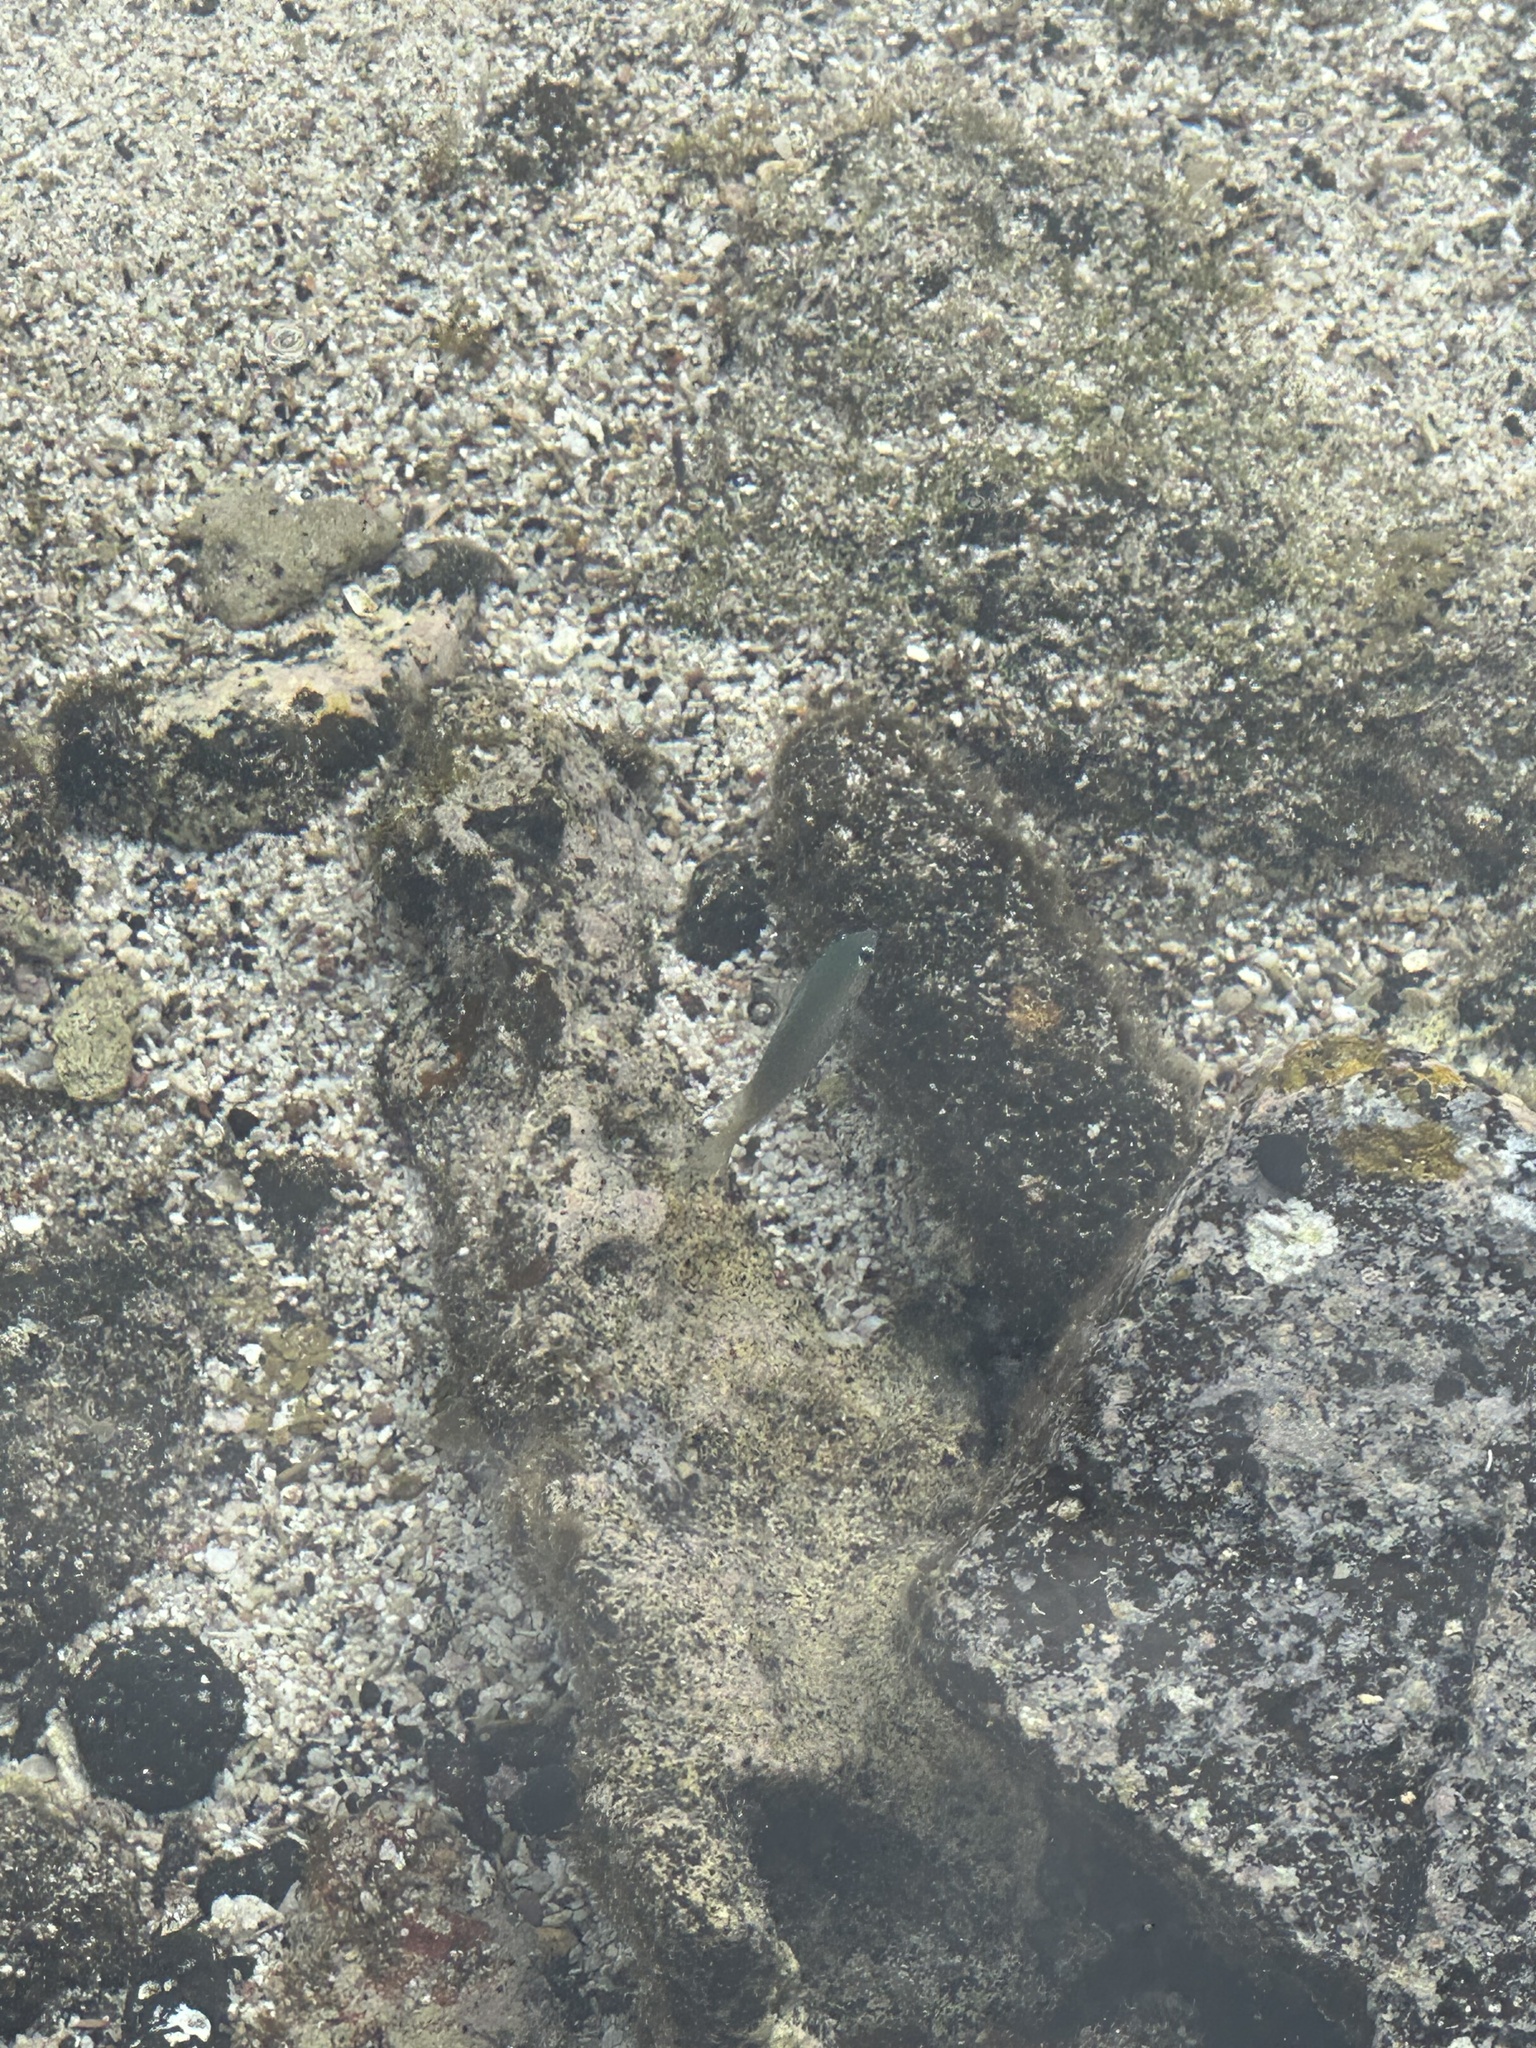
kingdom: Animalia
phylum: Chordata
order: Perciformes
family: Pomacentridae
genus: Plectroglyphidodon
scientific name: Plectroglyphidodon imparipennis
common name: Brighteye damsel
